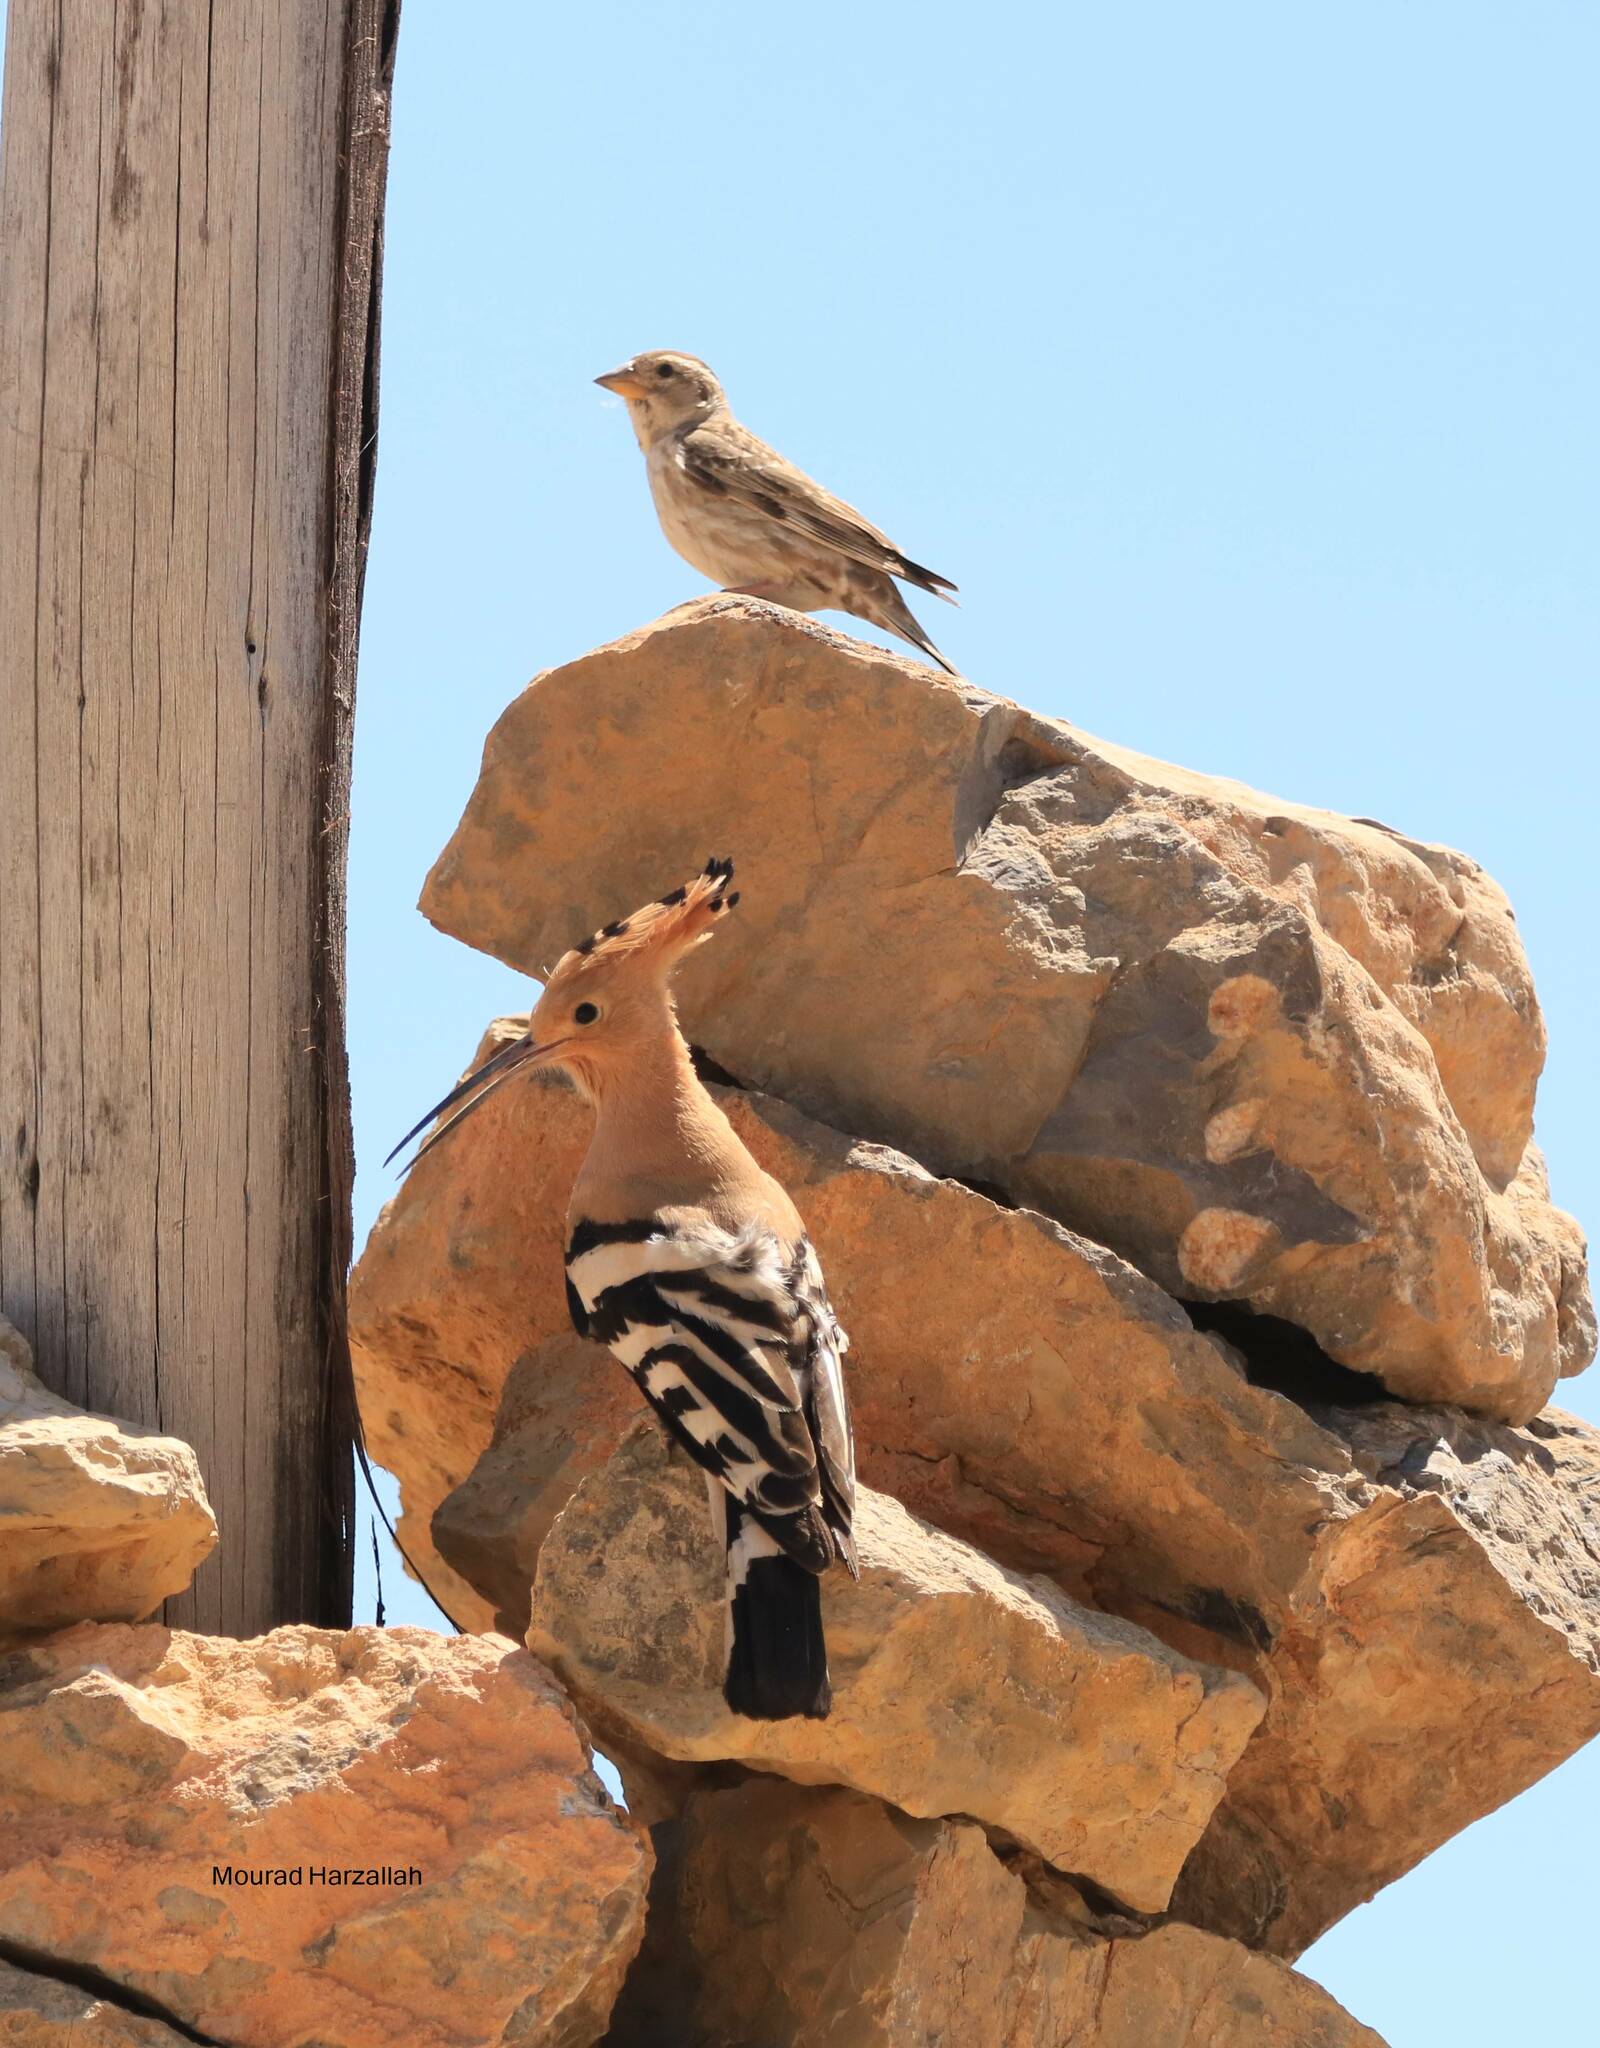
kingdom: Animalia
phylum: Chordata
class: Aves
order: Bucerotiformes
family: Upupidae
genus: Upupa
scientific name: Upupa epops
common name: Eurasian hoopoe
